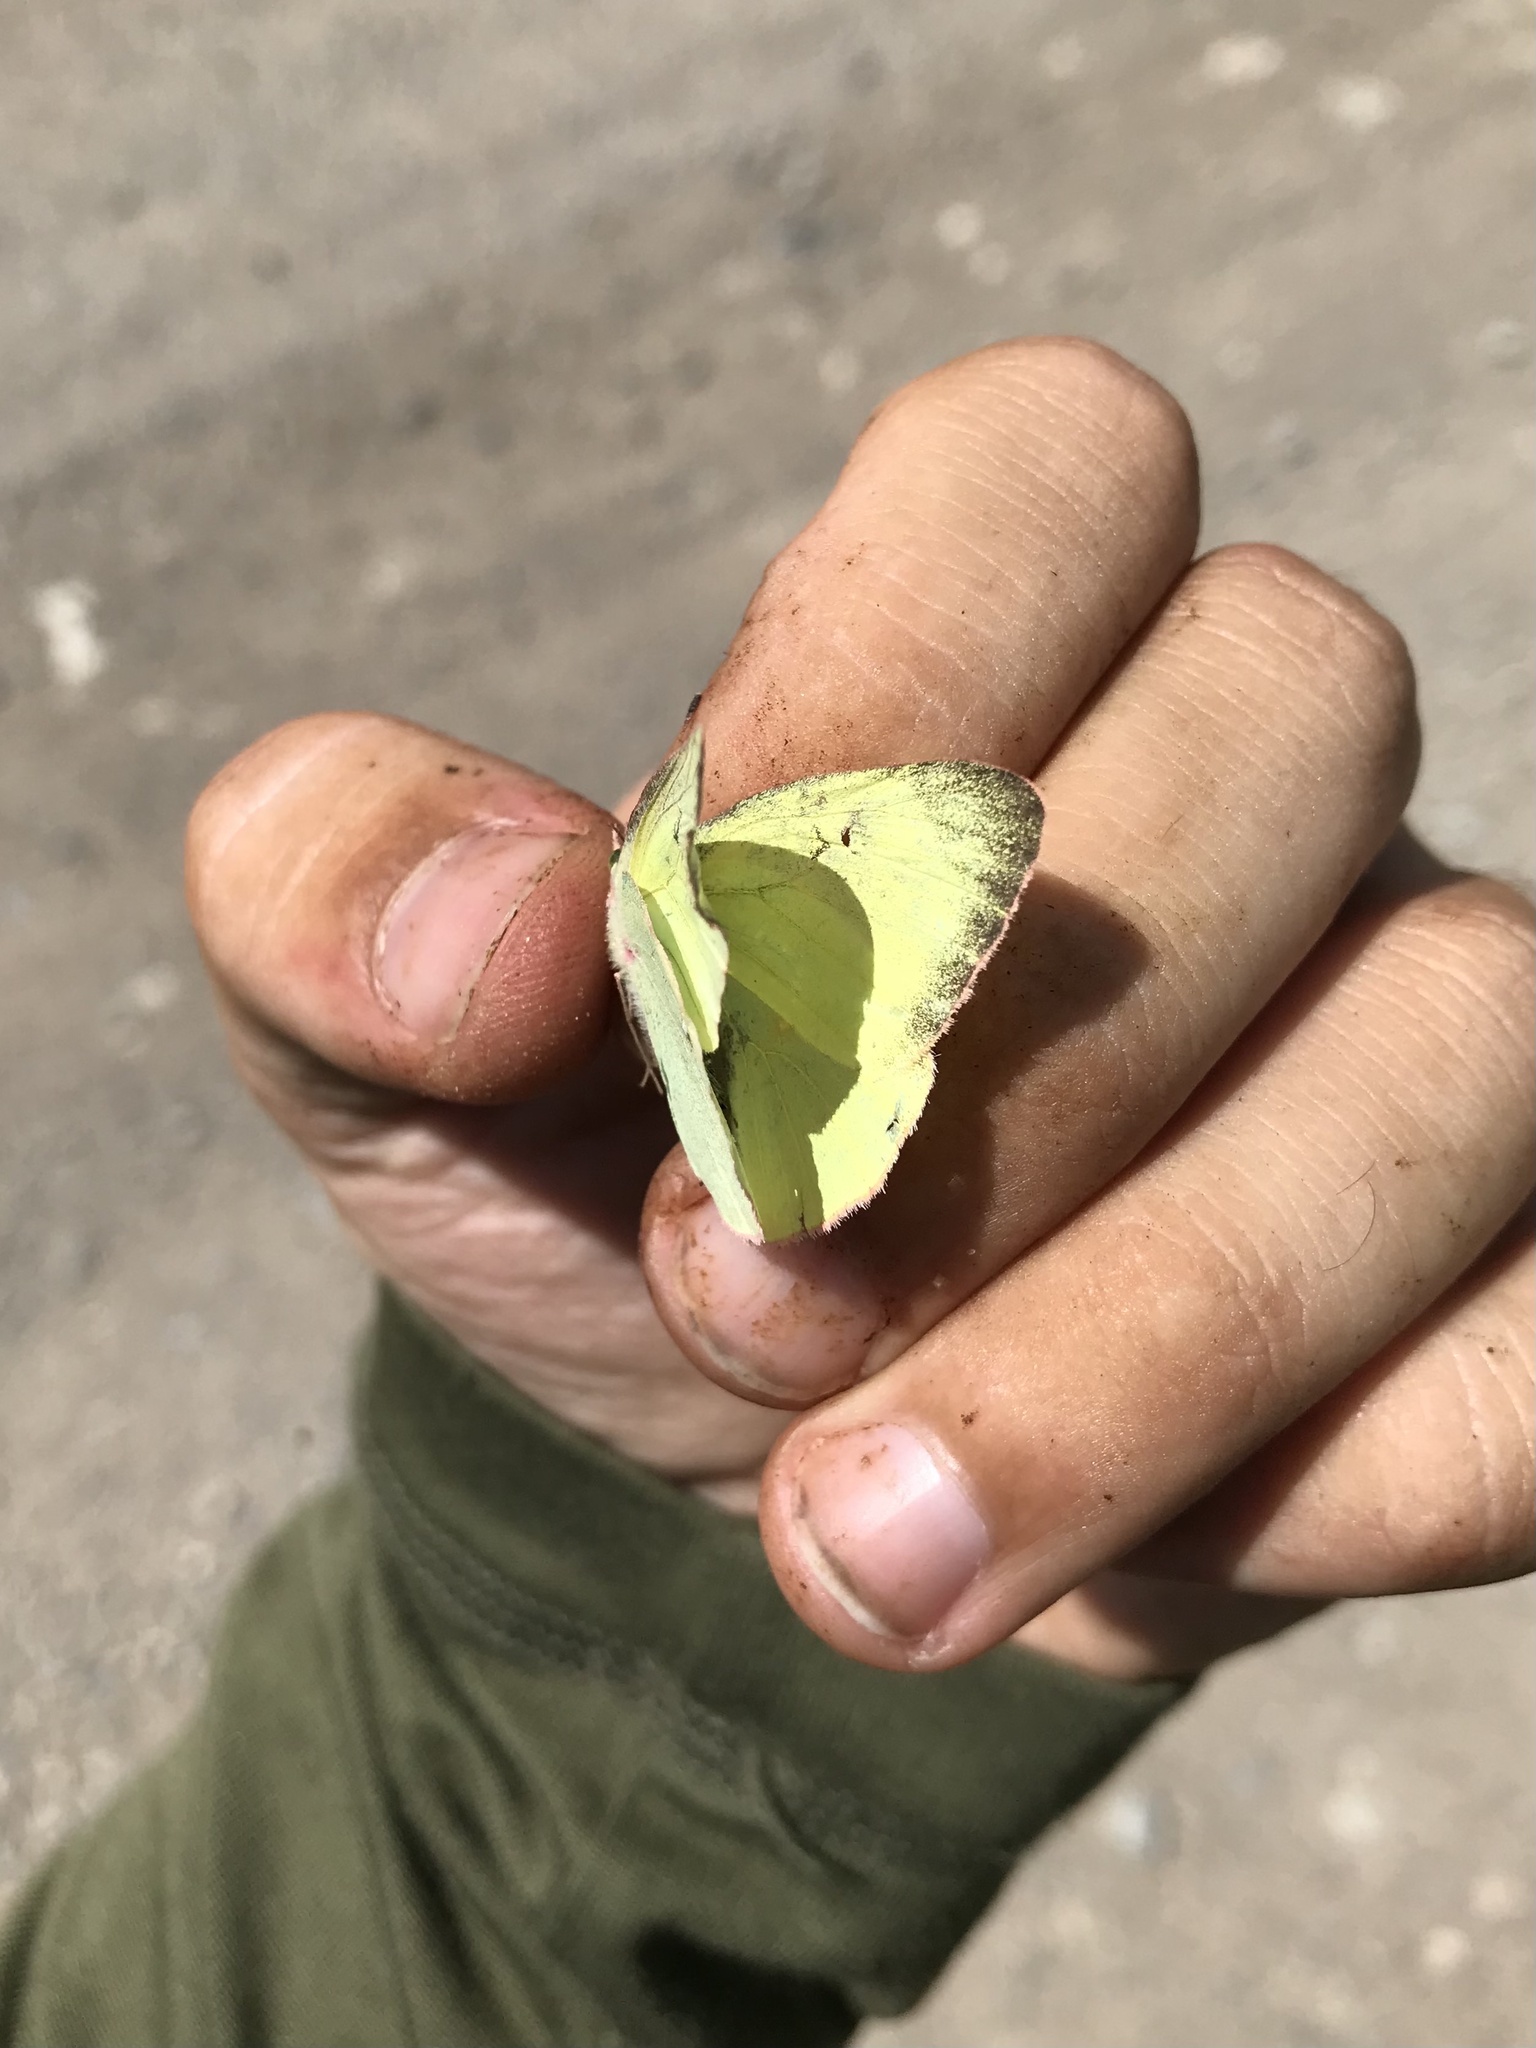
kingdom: Animalia
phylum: Arthropoda
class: Insecta
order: Lepidoptera
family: Pieridae
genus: Colias
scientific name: Colias interior
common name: Pink-edged sulphur
